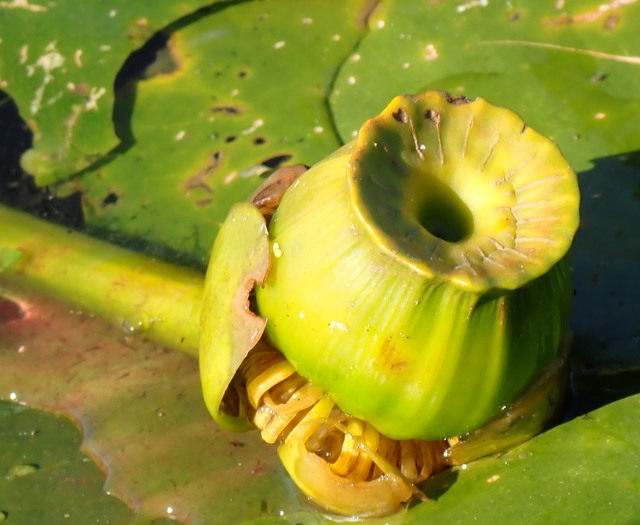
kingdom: Plantae
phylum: Tracheophyta
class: Magnoliopsida
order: Nymphaeales
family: Nymphaeaceae
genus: Nuphar
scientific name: Nuphar advena
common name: Spatter-dock
